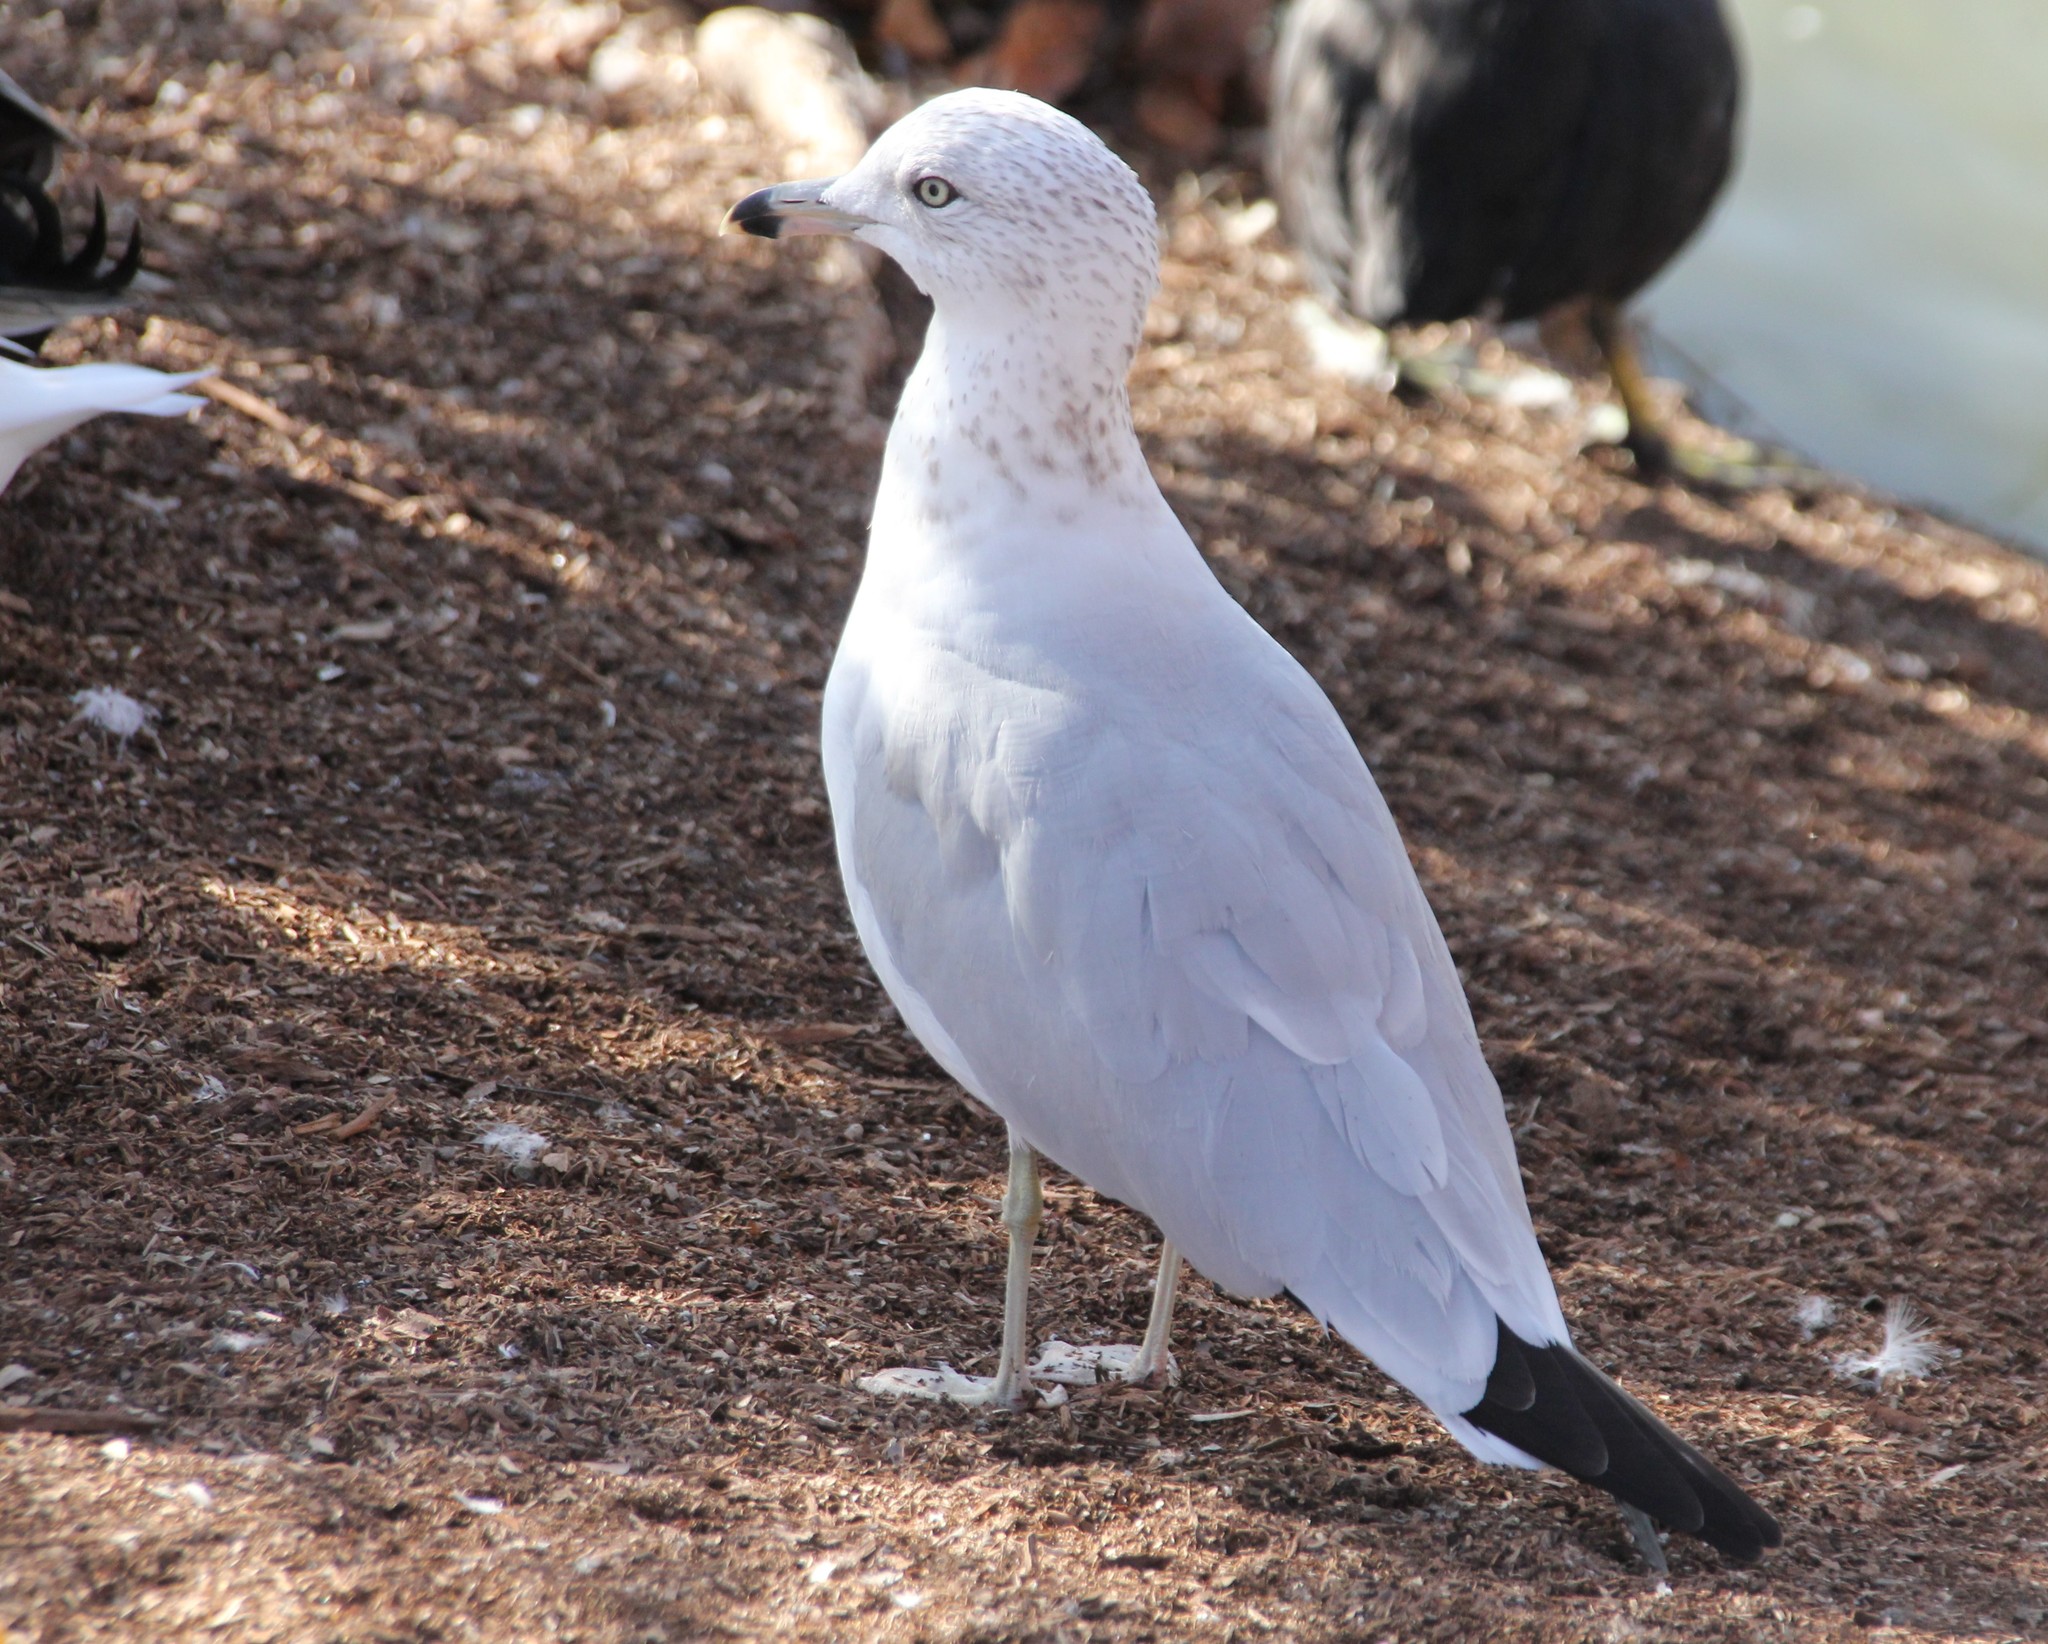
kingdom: Animalia
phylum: Chordata
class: Aves
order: Charadriiformes
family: Laridae
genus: Larus
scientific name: Larus delawarensis
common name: Ring-billed gull
